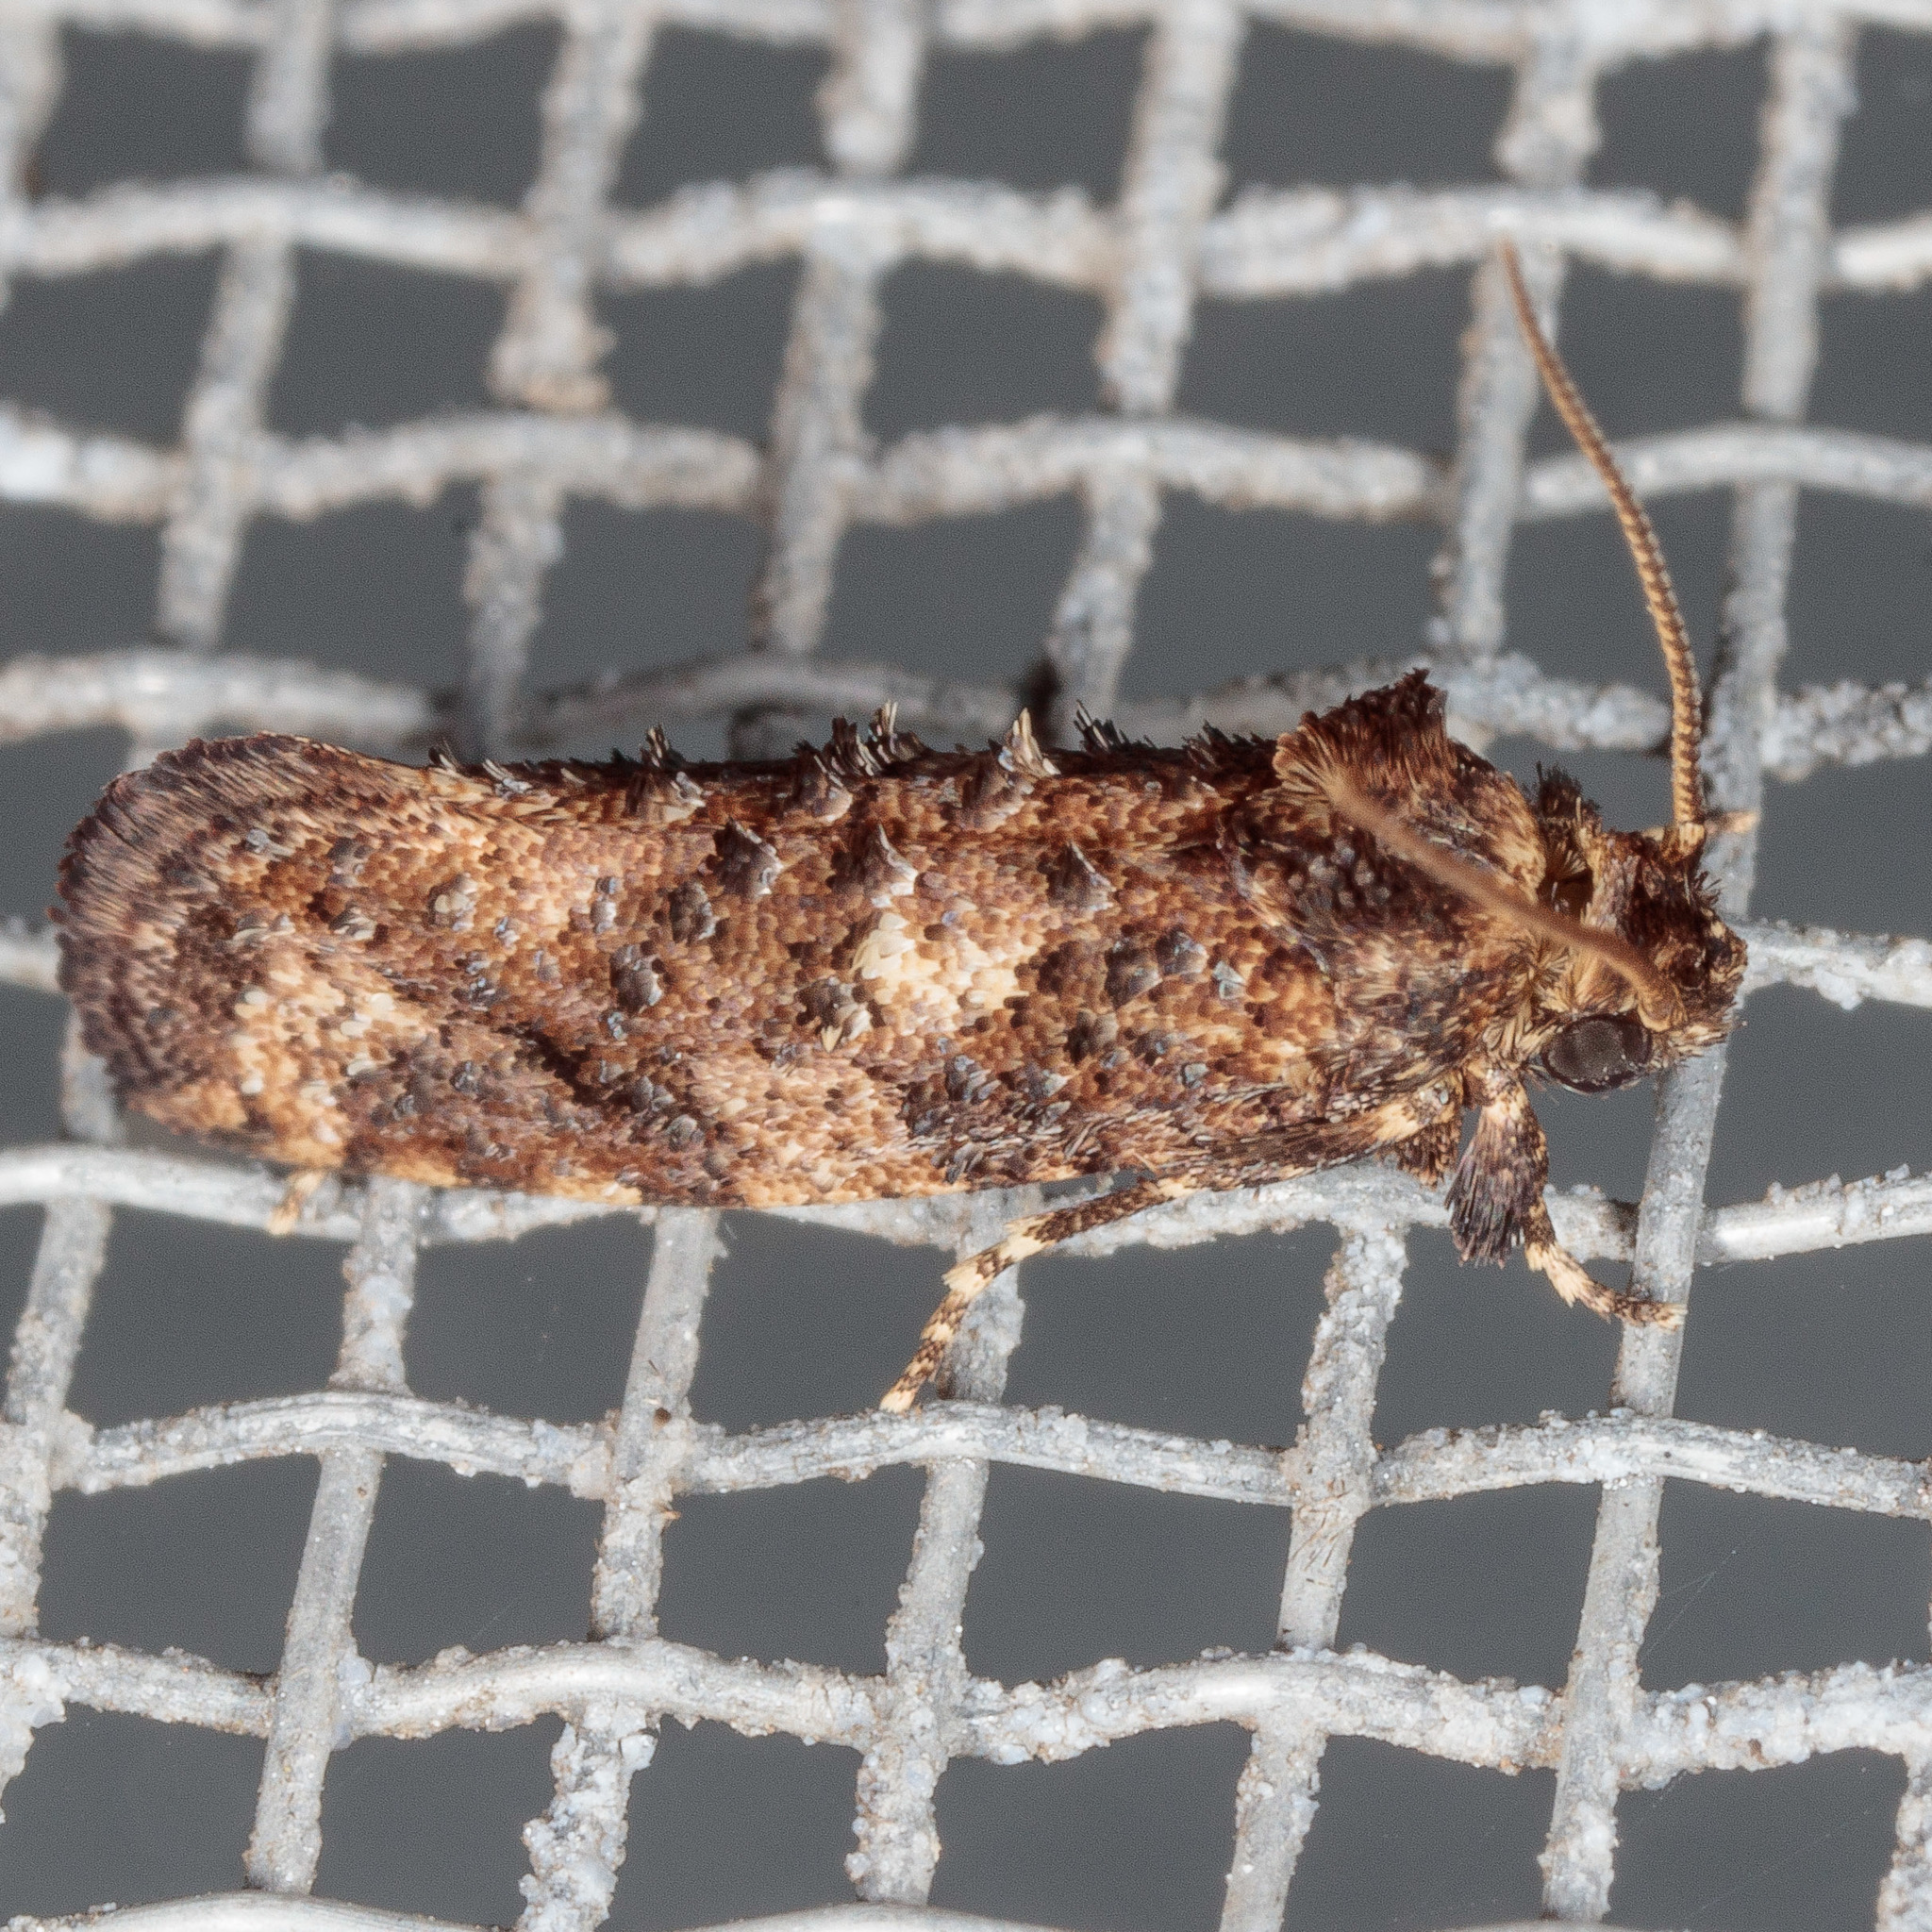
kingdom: Animalia
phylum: Arthropoda
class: Insecta
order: Lepidoptera
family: Tineidae
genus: Acrolophus
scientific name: Acrolophus cressoni
